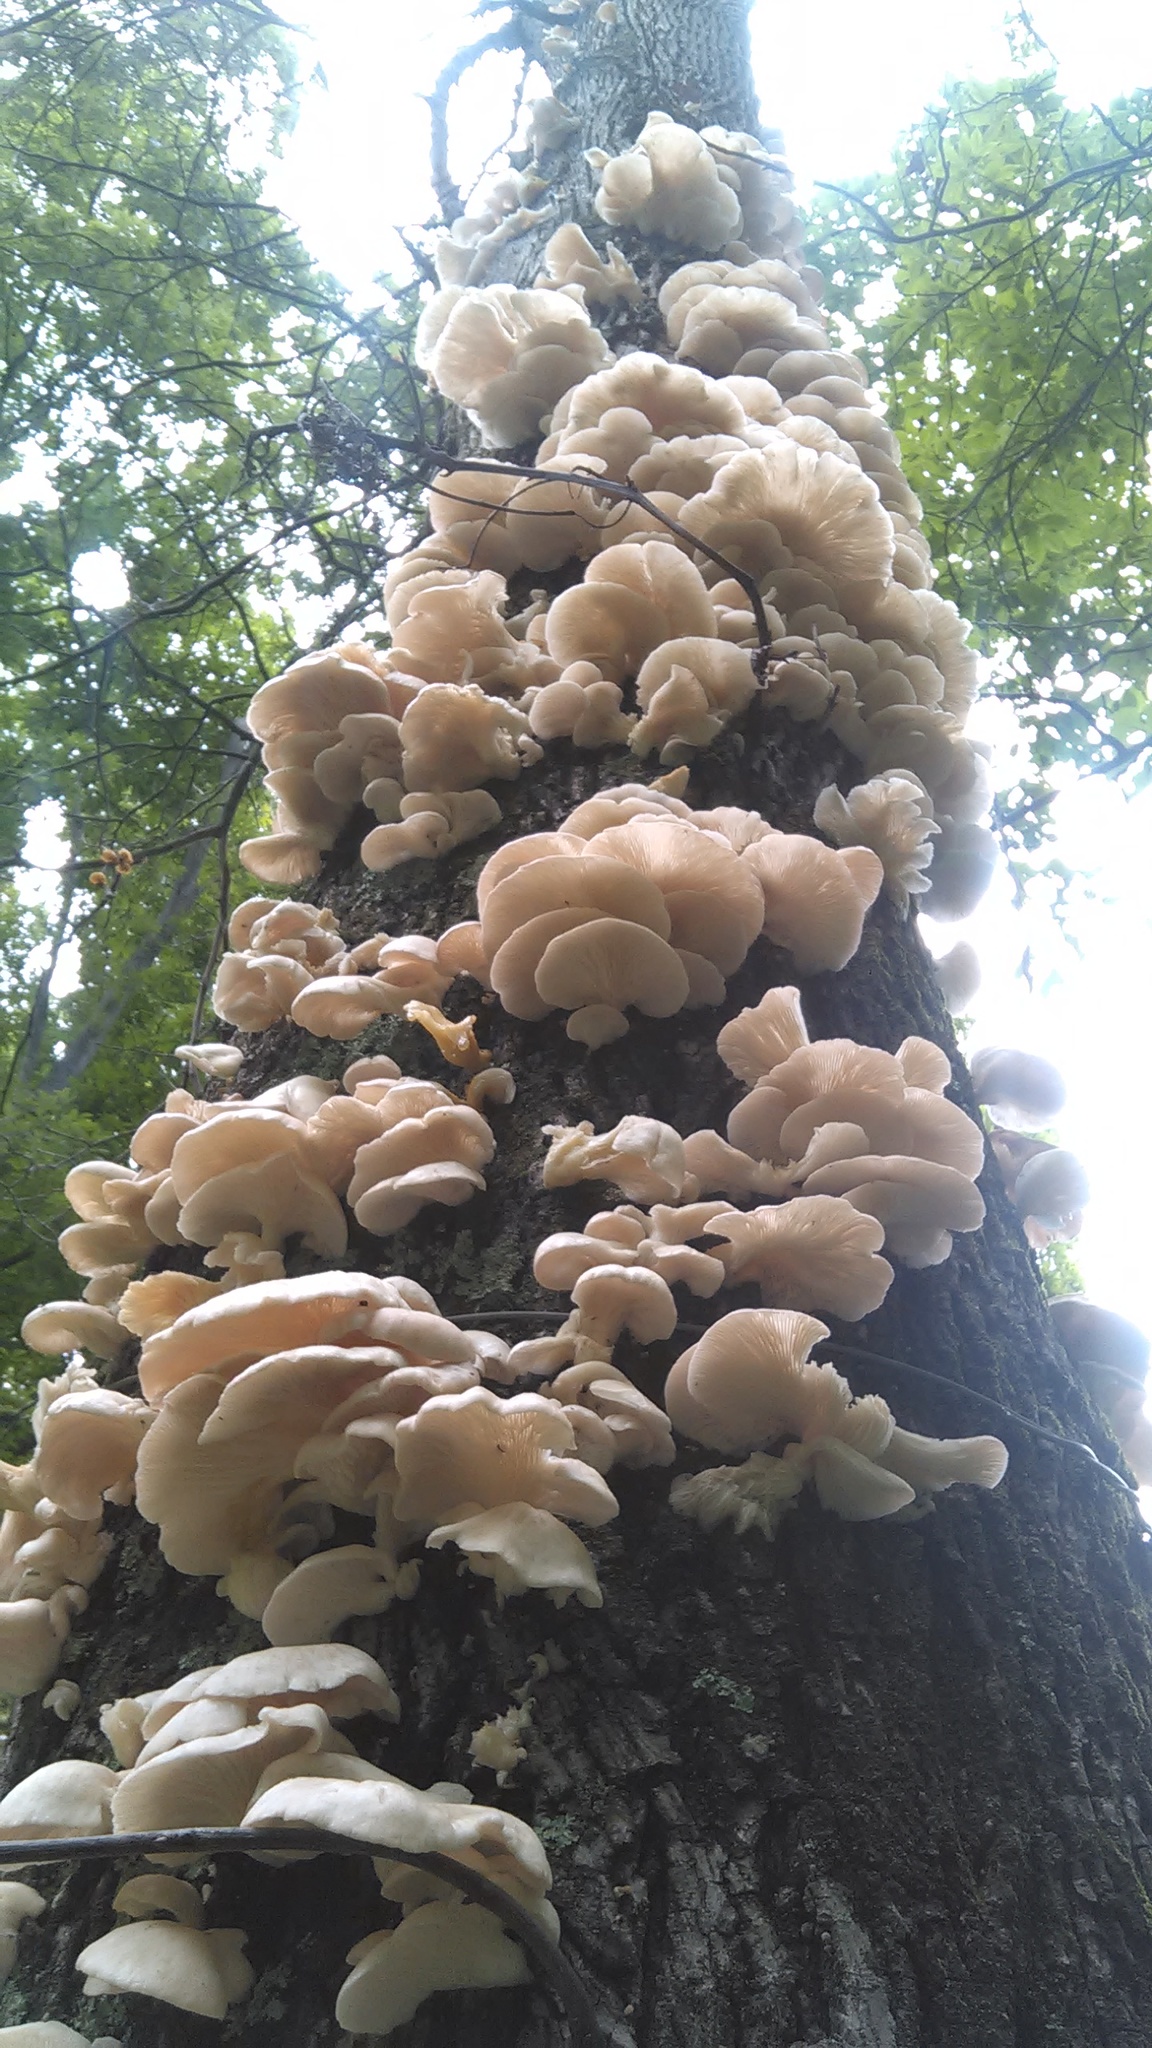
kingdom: Fungi
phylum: Basidiomycota
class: Agaricomycetes
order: Agaricales
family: Pleurotaceae
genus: Pleurotus
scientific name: Pleurotus pulmonarius
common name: Pale oyster
